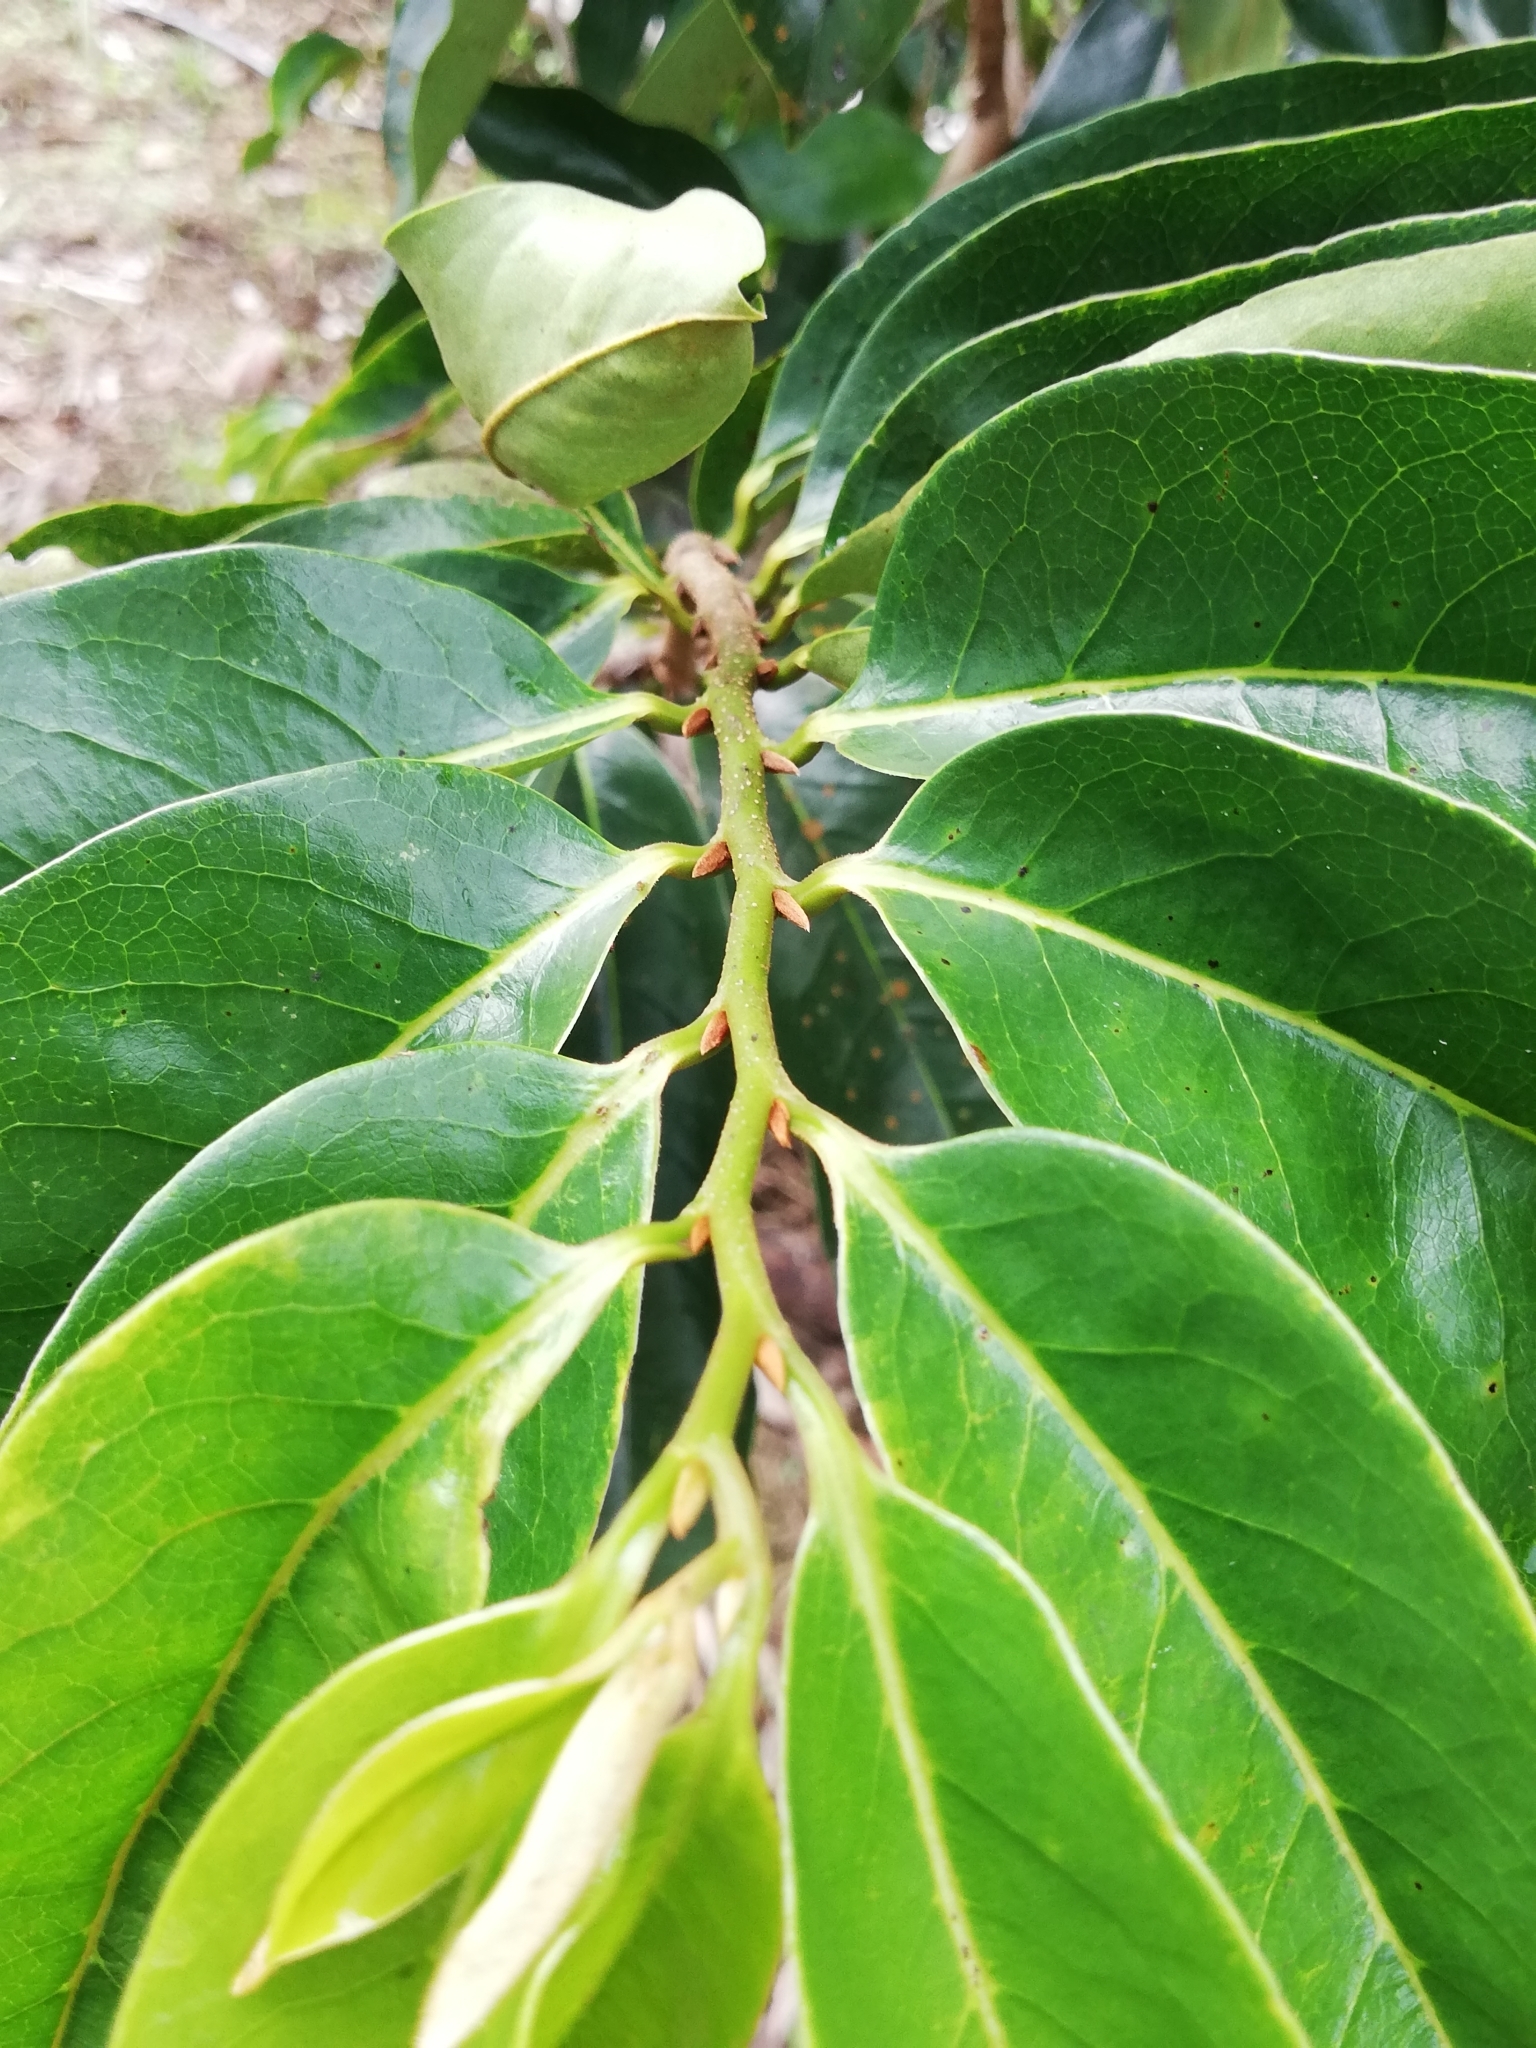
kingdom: Plantae
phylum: Tracheophyta
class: Magnoliopsida
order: Magnoliales
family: Annonaceae
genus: Annona
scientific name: Annona muricata
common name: Soursop
